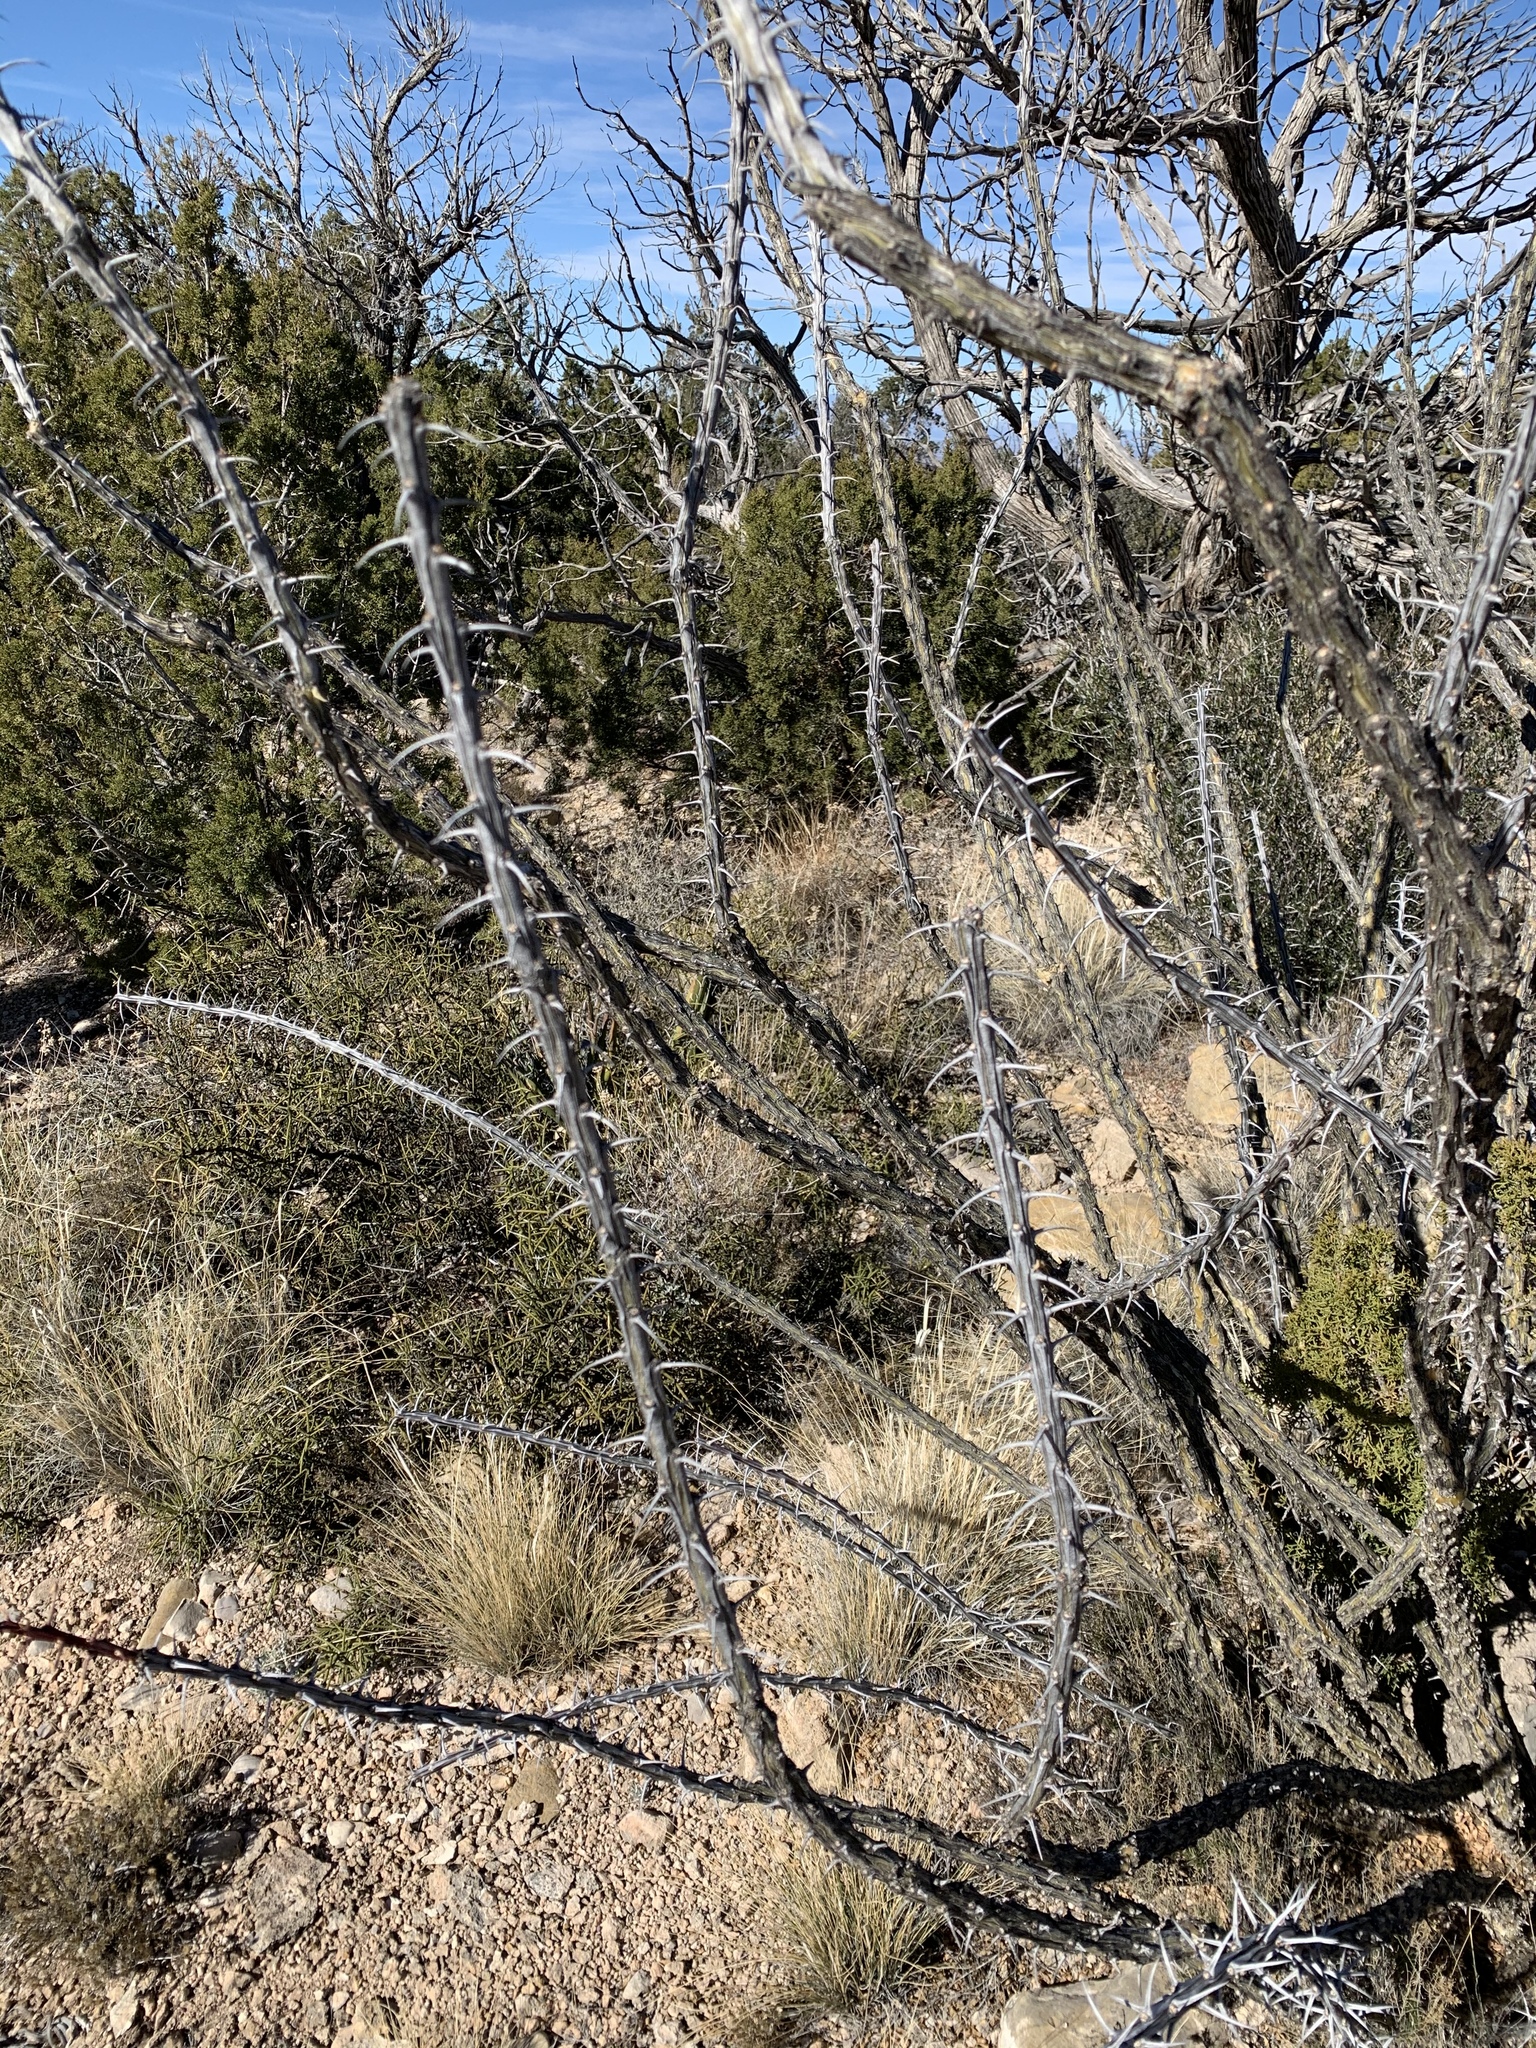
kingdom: Plantae
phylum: Tracheophyta
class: Magnoliopsida
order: Ericales
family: Fouquieriaceae
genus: Fouquieria
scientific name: Fouquieria splendens
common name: Vine-cactus
